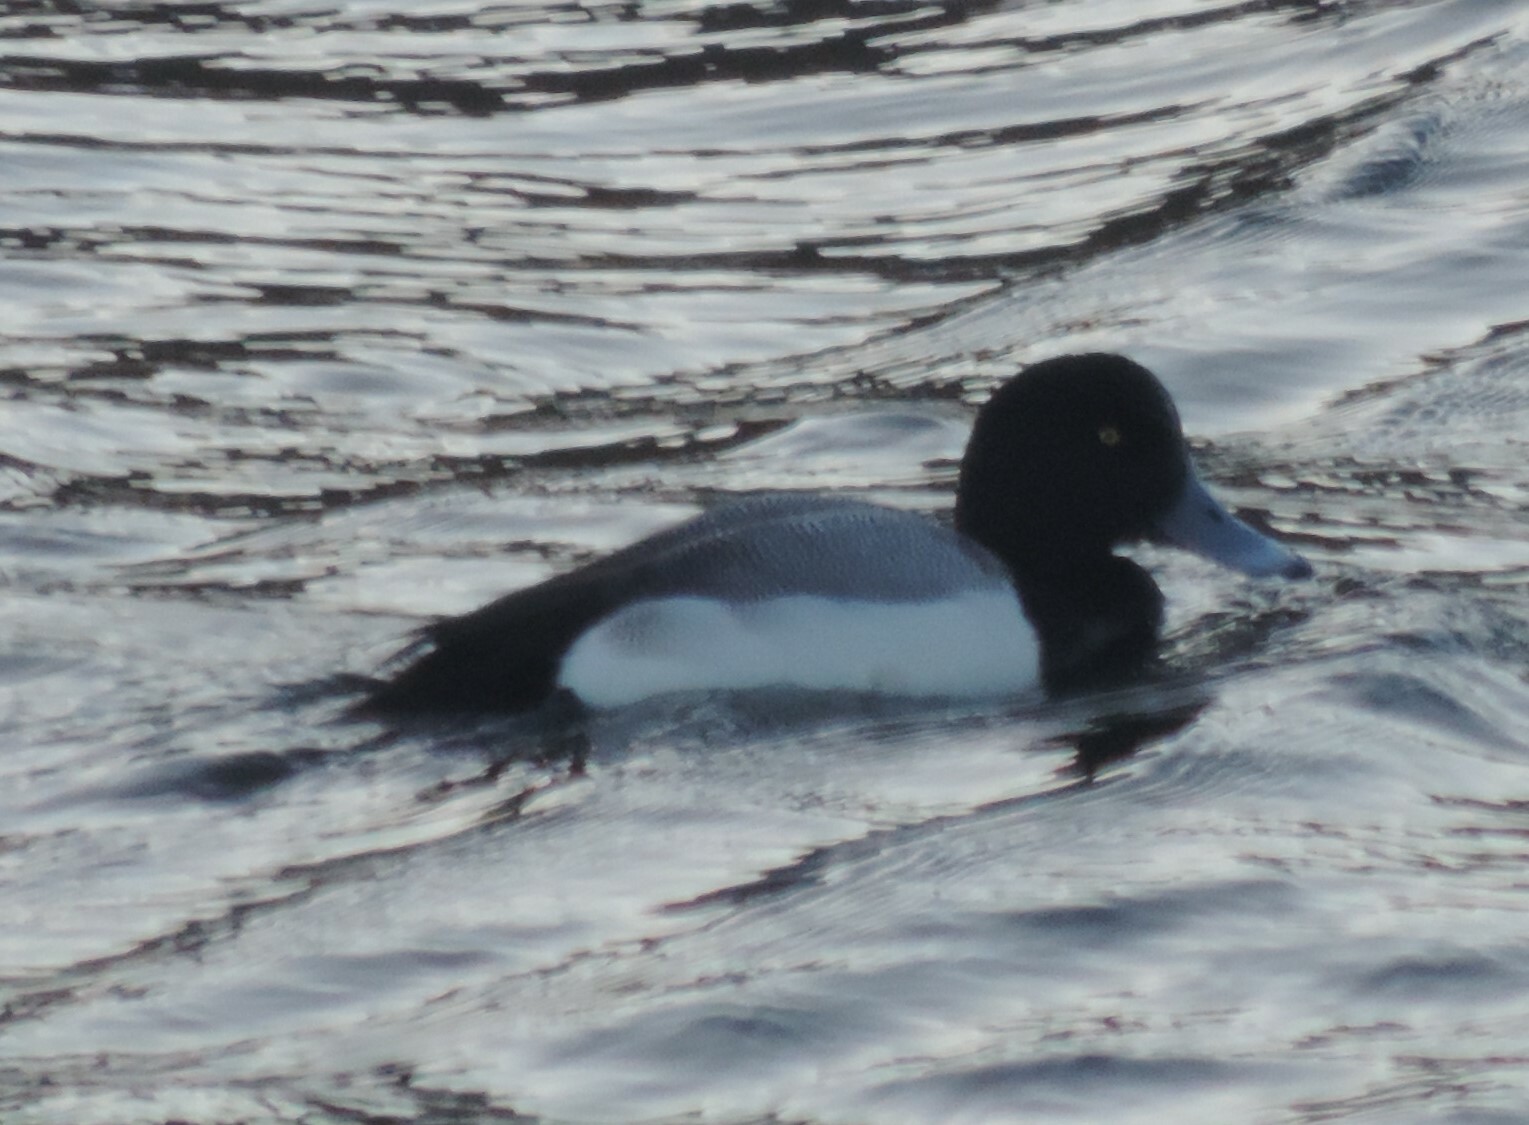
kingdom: Animalia
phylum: Chordata
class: Aves
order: Anseriformes
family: Anatidae
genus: Aythya
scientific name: Aythya marila
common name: Greater scaup
